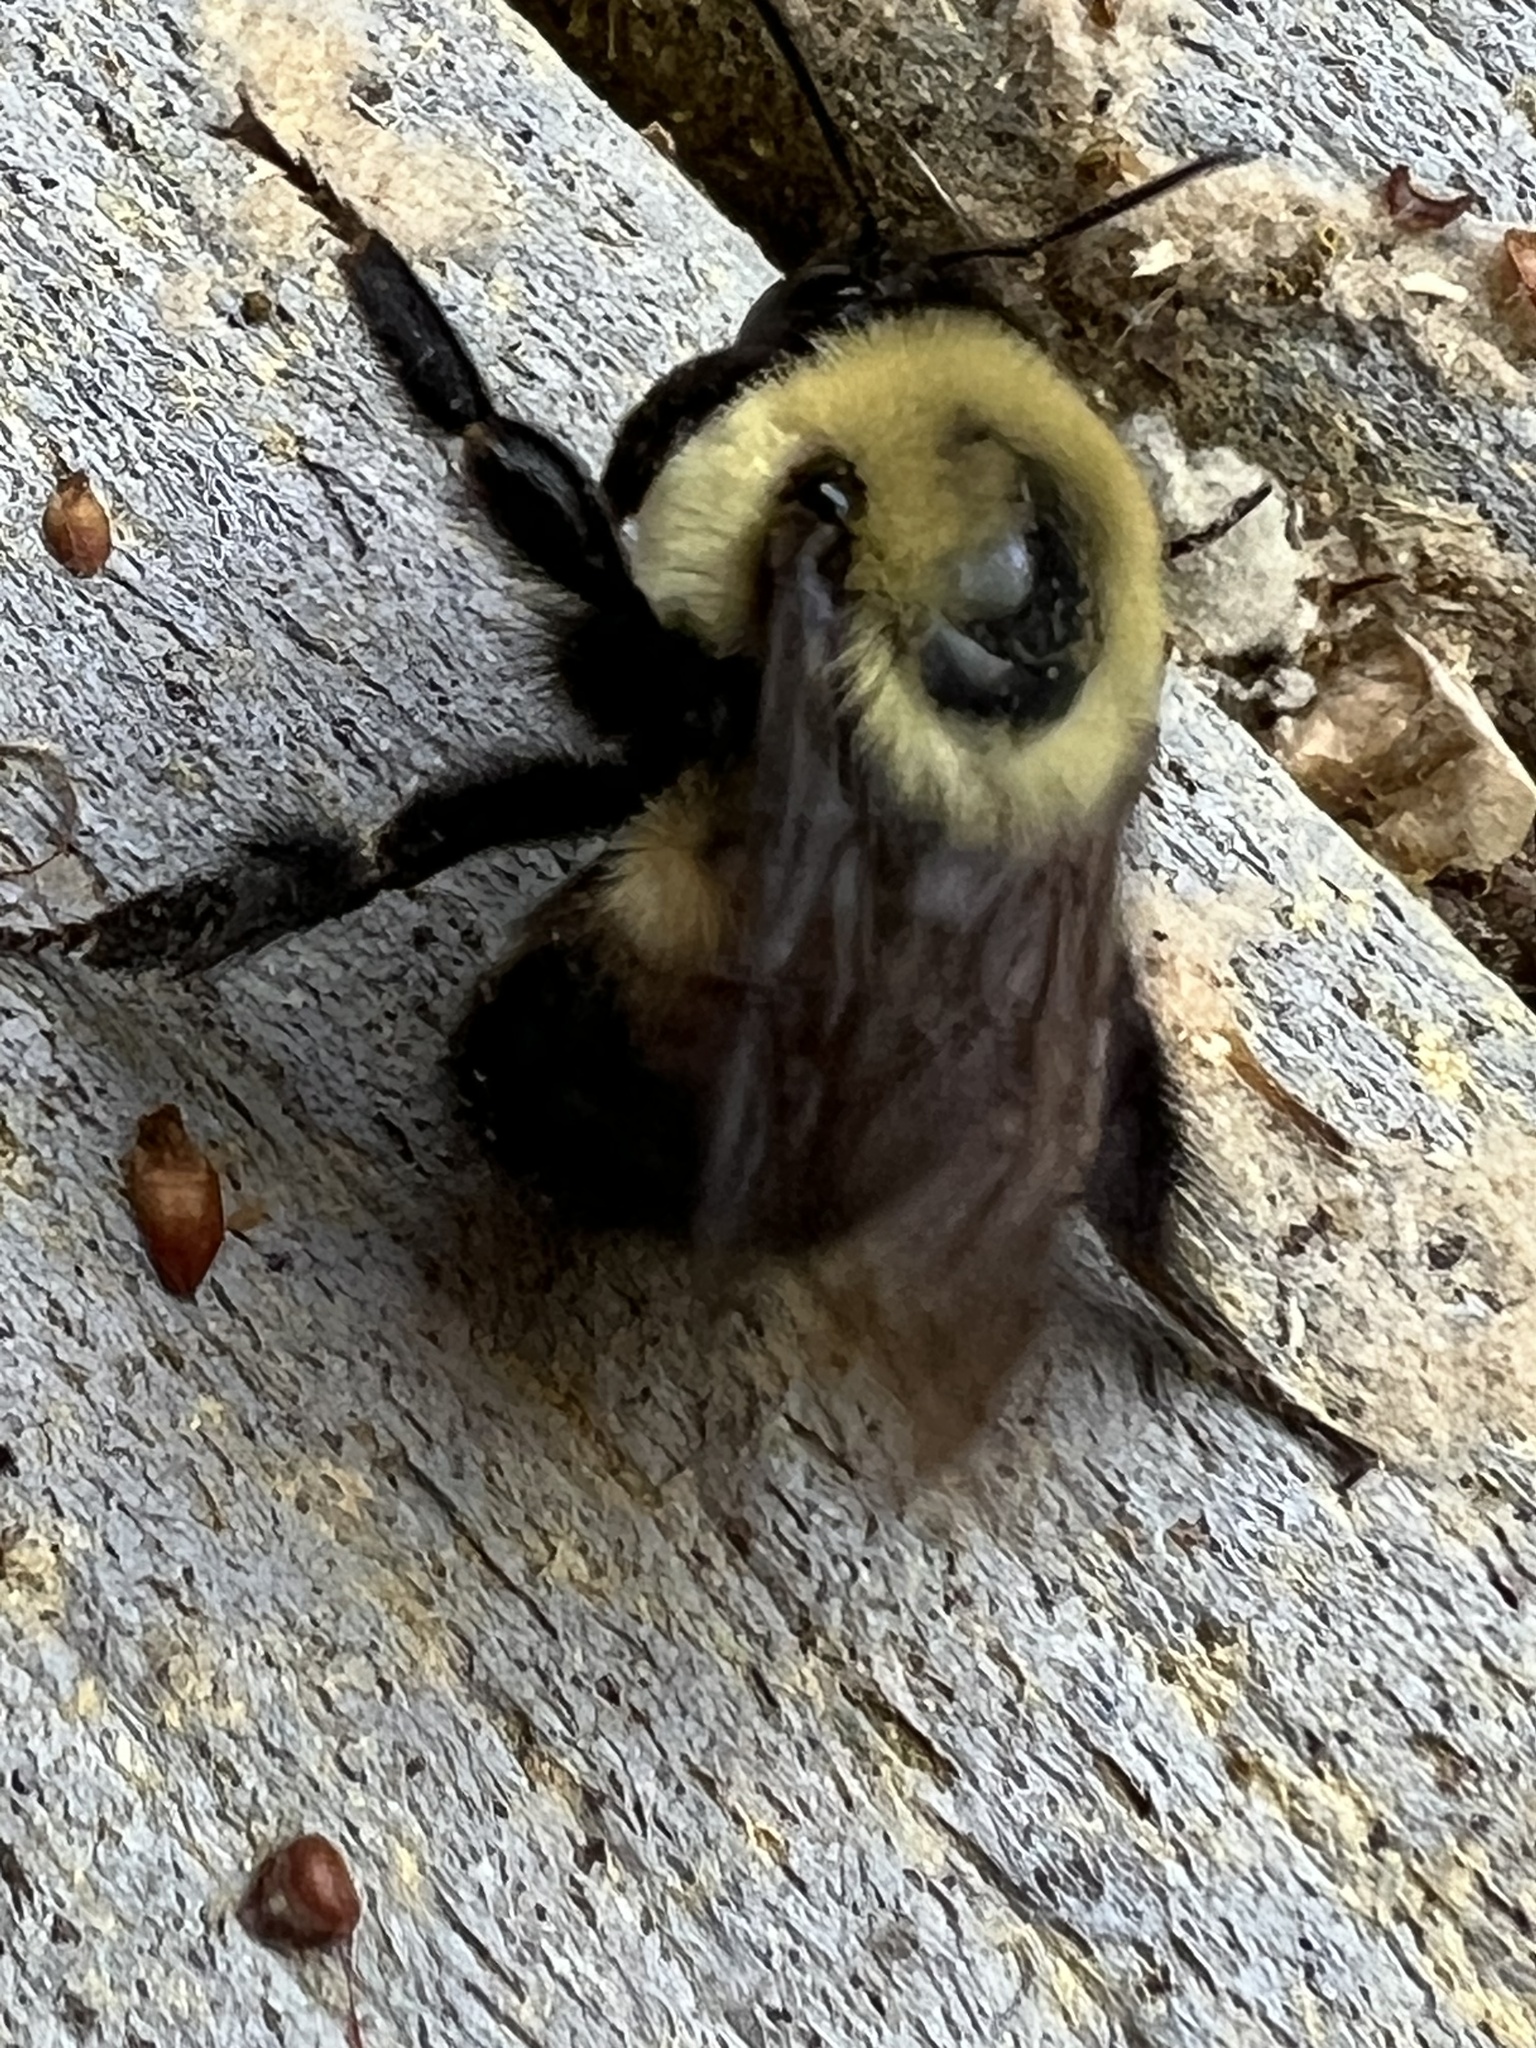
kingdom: Animalia
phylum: Arthropoda
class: Insecta
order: Hymenoptera
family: Apidae
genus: Bombus
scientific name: Bombus griseocollis
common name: Brown-belted bumble bee
